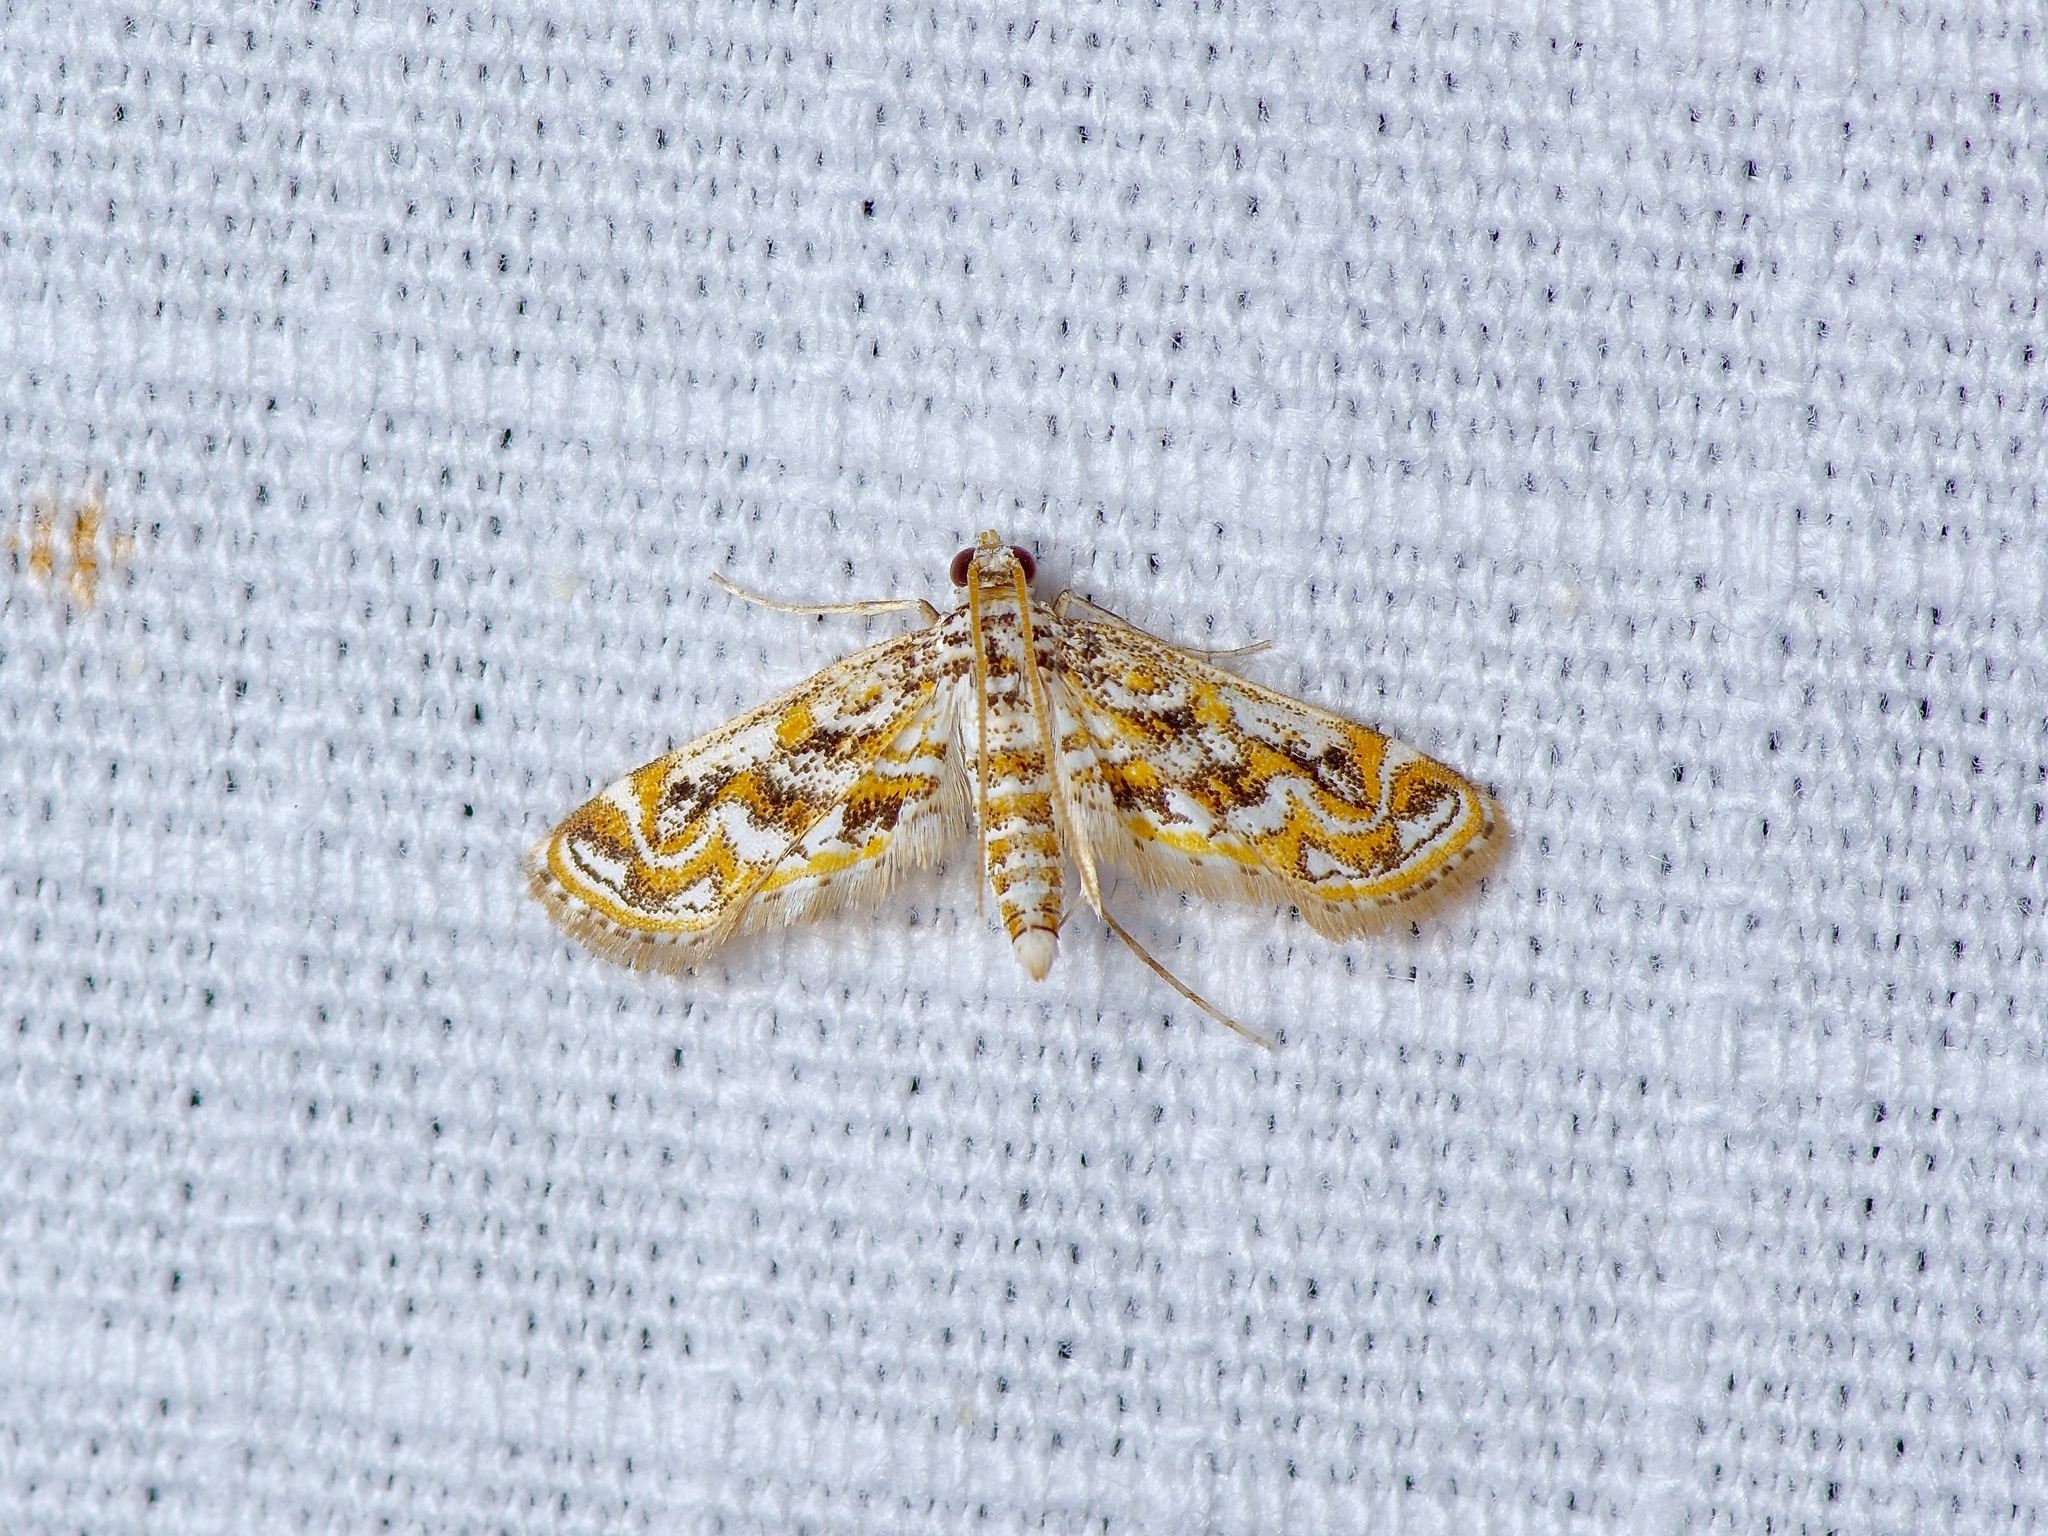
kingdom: Animalia
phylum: Arthropoda
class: Insecta
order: Lepidoptera
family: Crambidae
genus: Parapoynx
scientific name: Parapoynx diminutalis
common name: Hydrilla leafcutter
